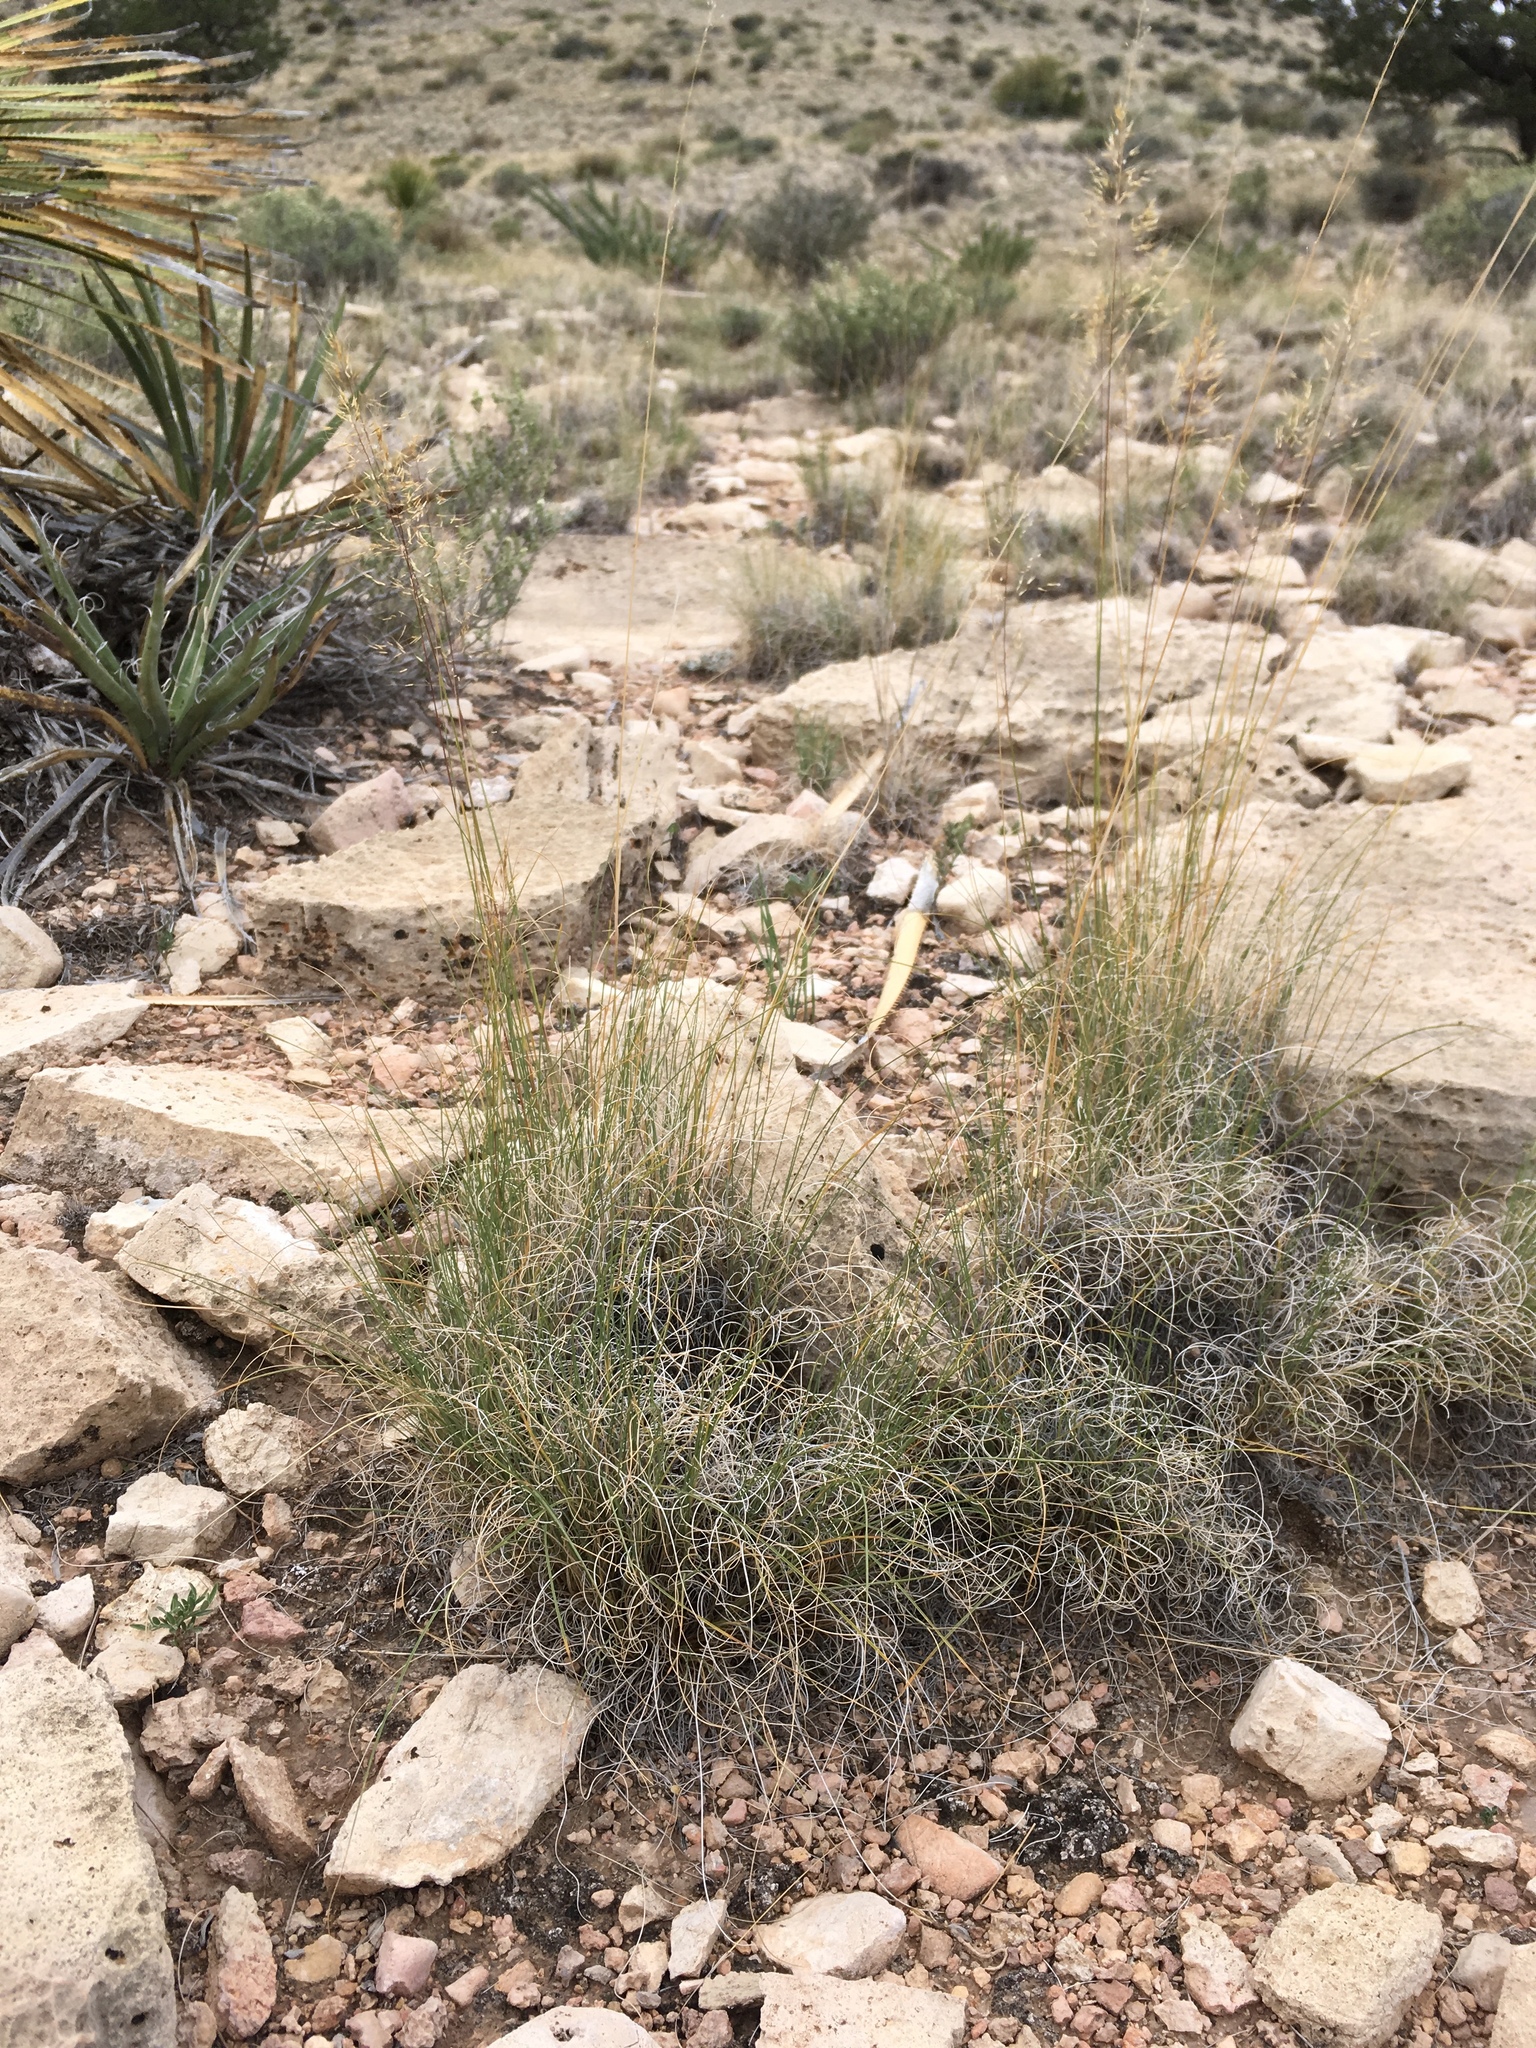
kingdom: Plantae
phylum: Tracheophyta
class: Liliopsida
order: Poales
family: Poaceae
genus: Muhlenbergia
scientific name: Muhlenbergia setifolia
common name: Curly-leaf muhly
